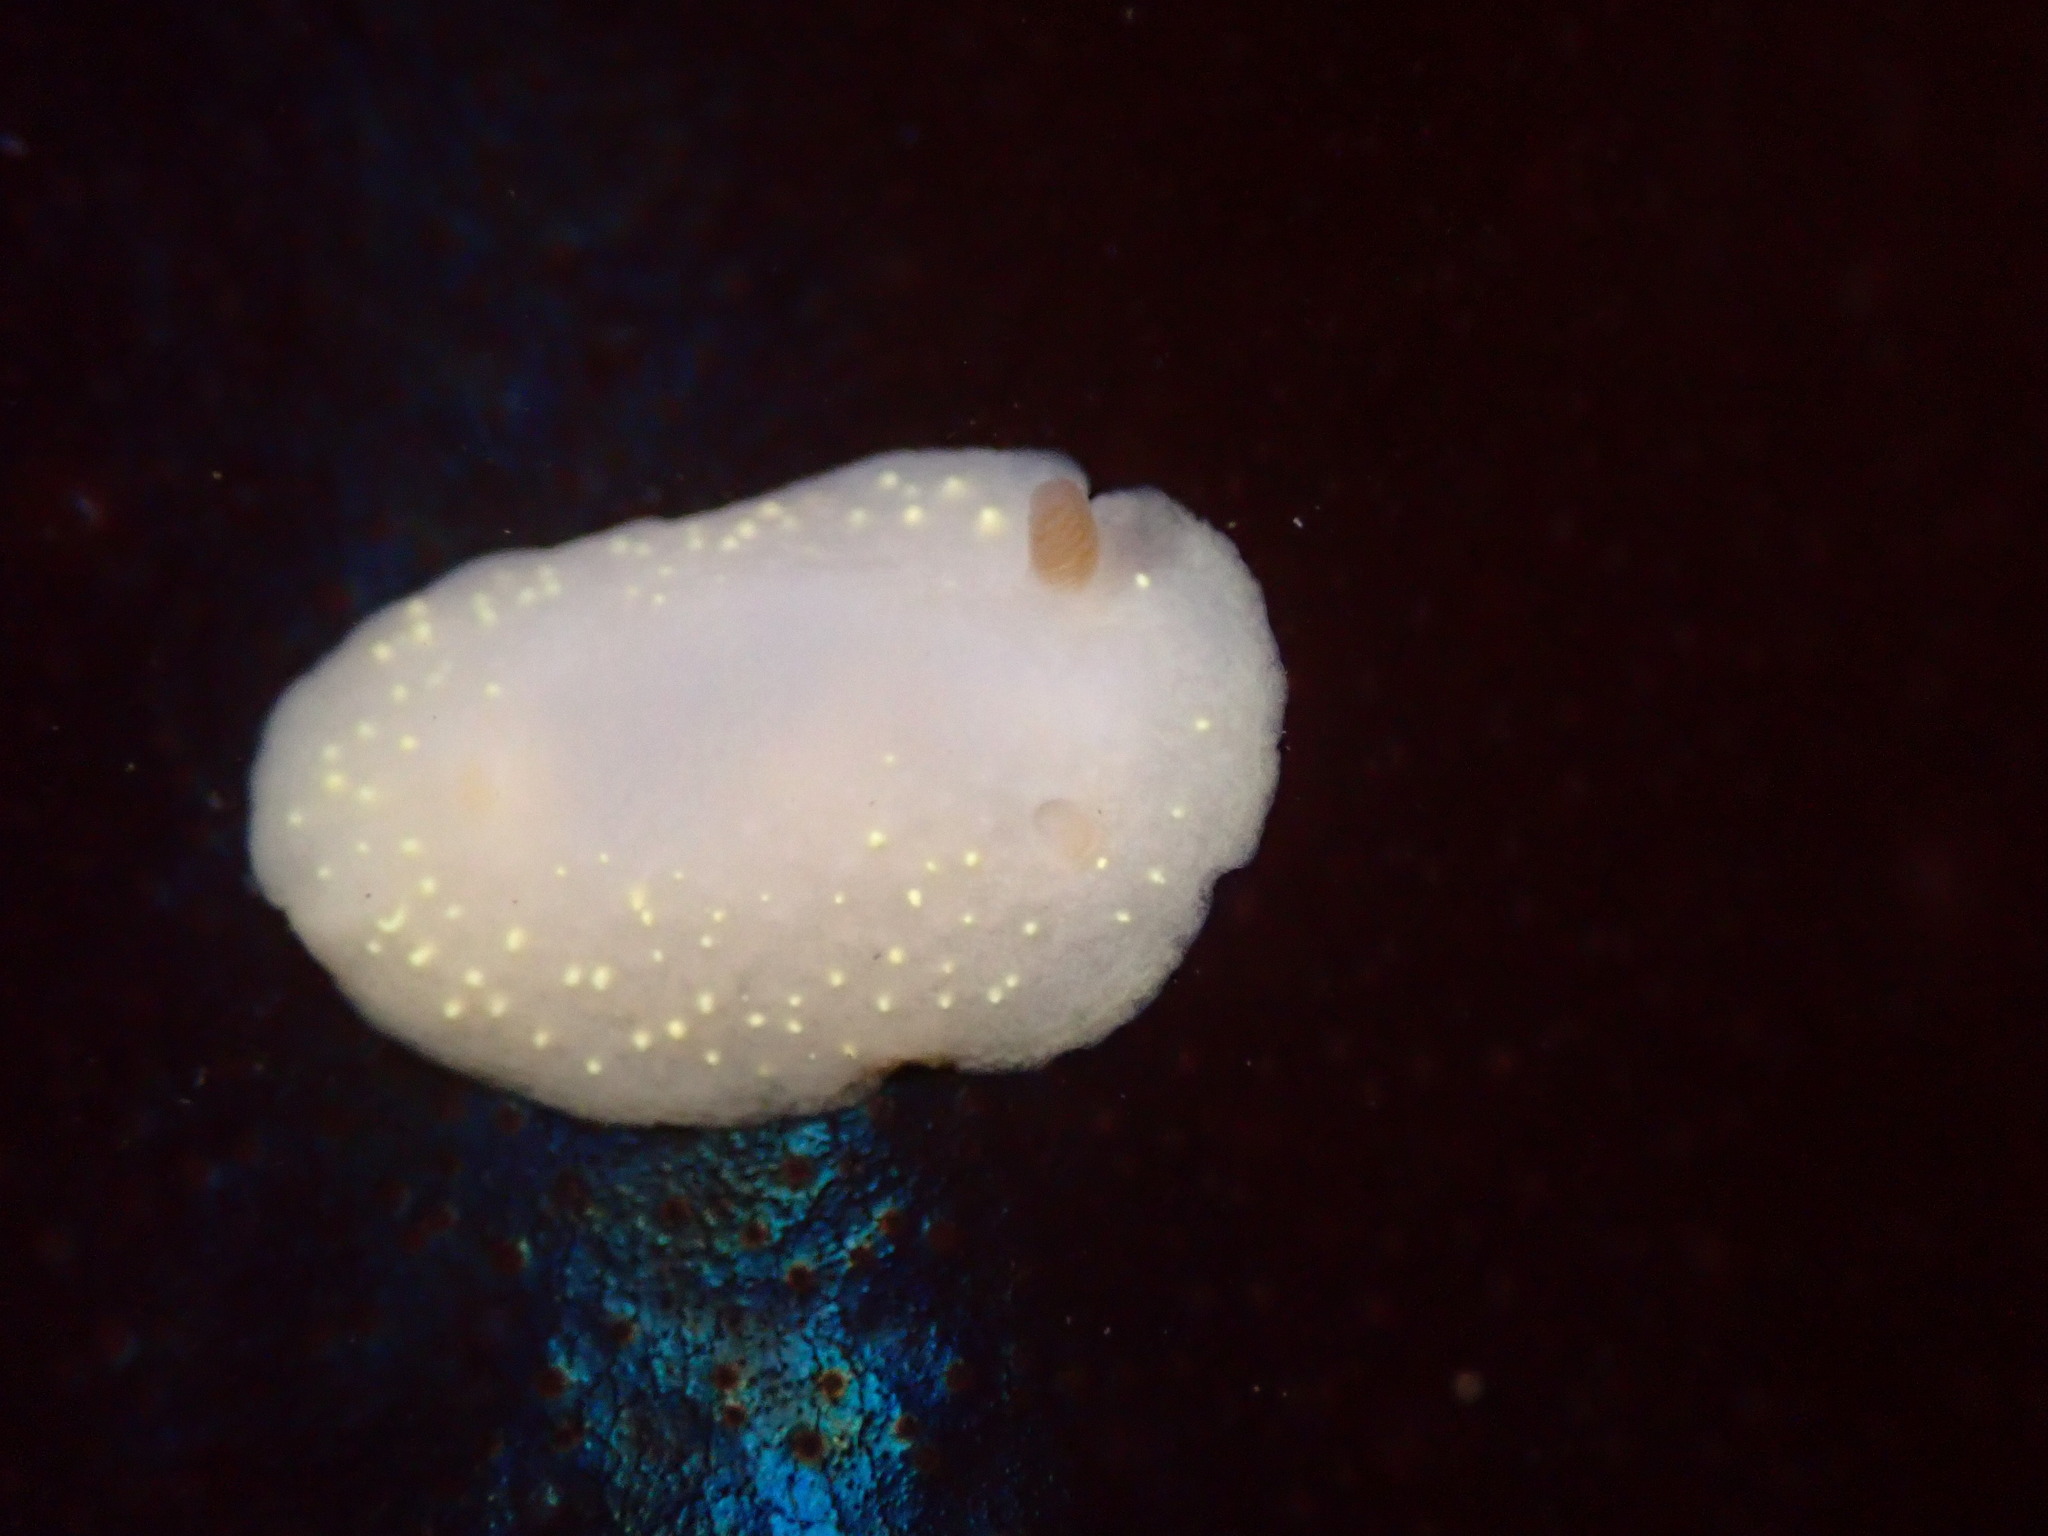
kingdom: Animalia
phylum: Mollusca
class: Gastropoda
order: Nudibranchia
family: Cadlinidae
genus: Cadlina
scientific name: Cadlina modesta
